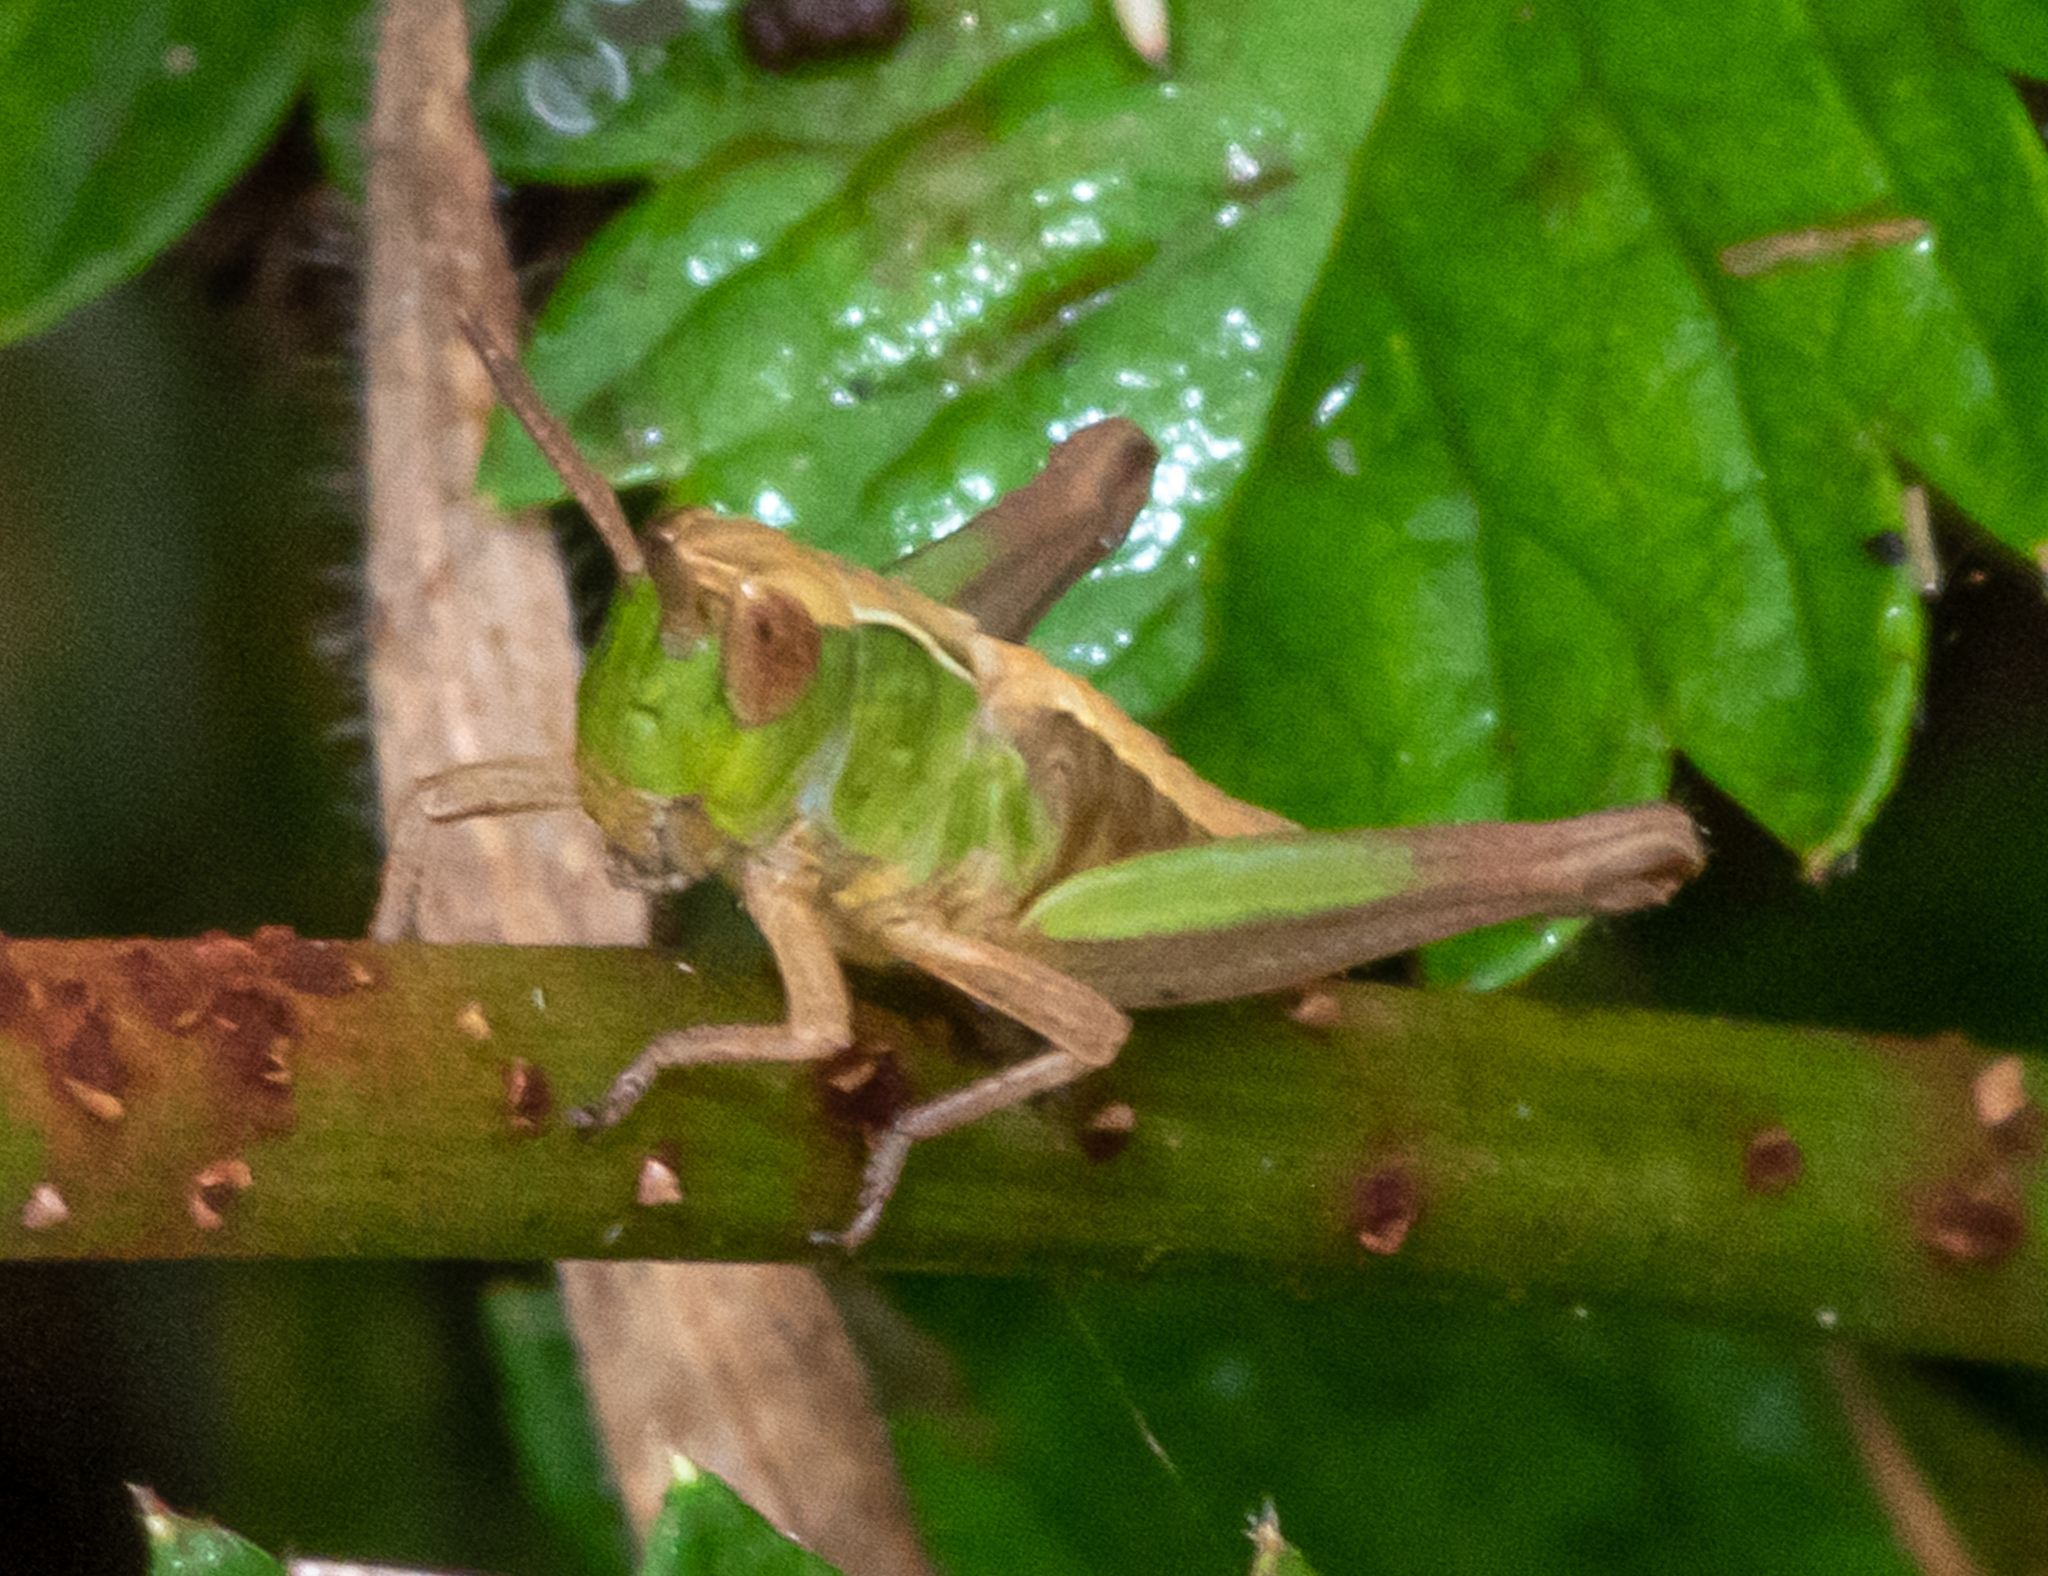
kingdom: Animalia
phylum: Arthropoda
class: Insecta
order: Orthoptera
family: Acrididae
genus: Pseudochorthippus
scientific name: Pseudochorthippus curtipennis
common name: Marsh meadow grasshopper
